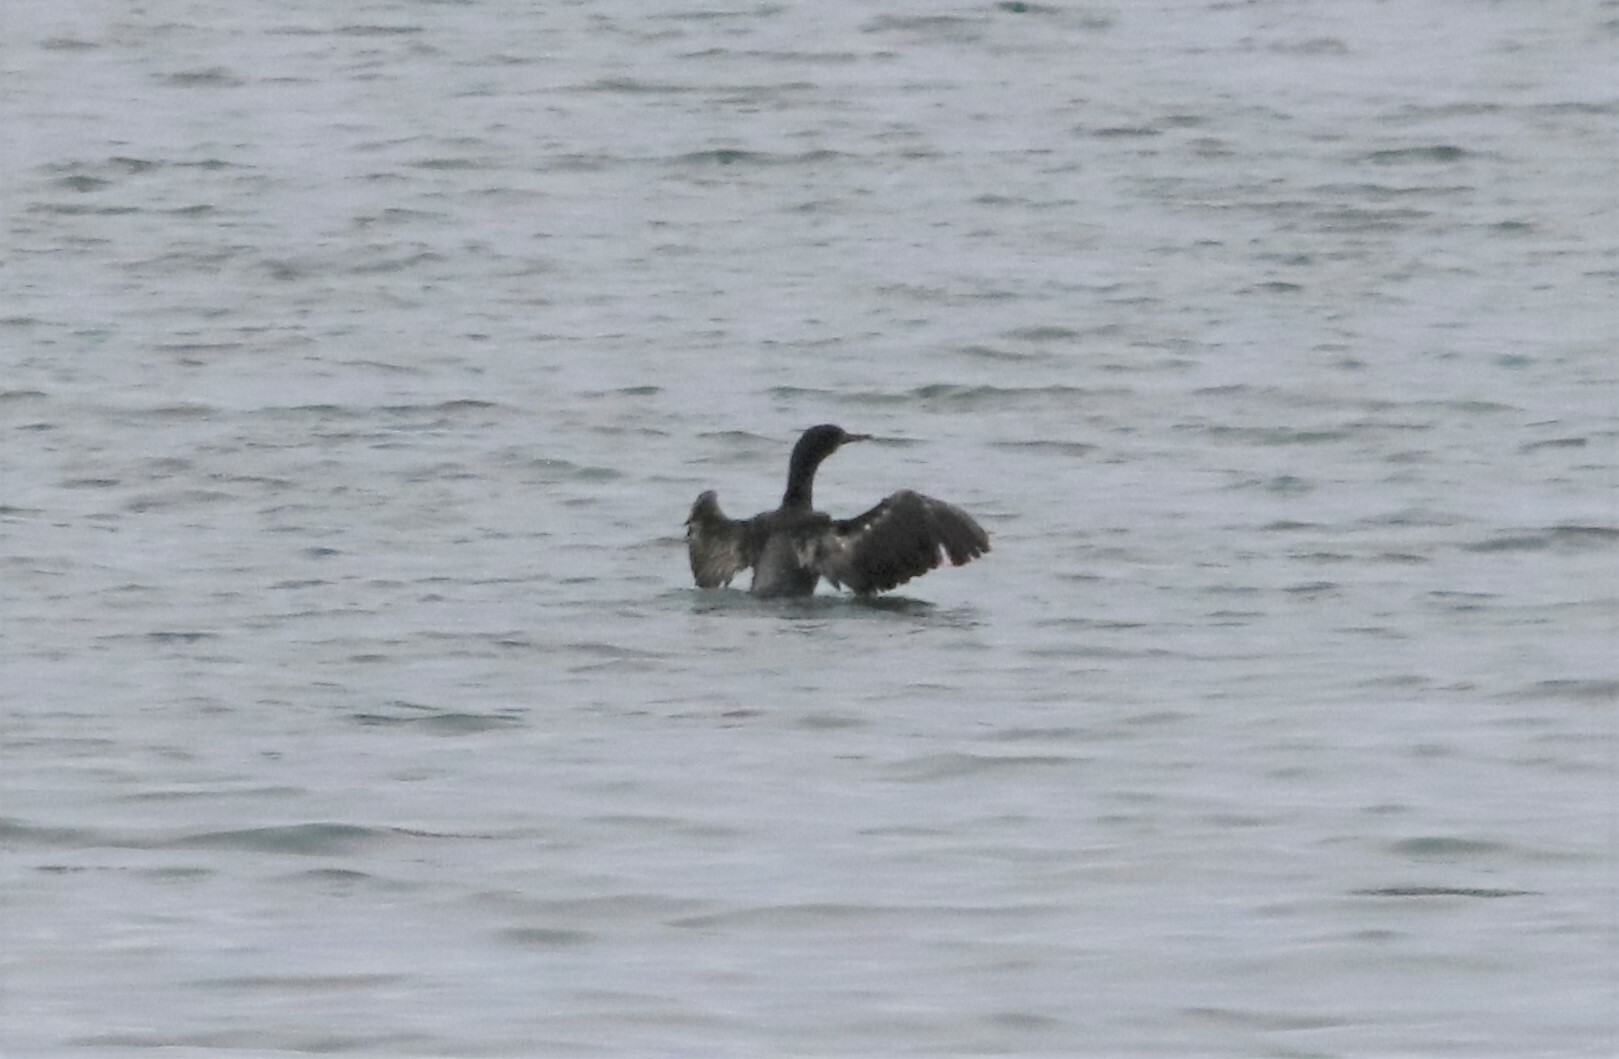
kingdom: Animalia
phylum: Chordata
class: Aves
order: Suliformes
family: Phalacrocoracidae
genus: Urile
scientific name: Urile penicillatus
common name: Brandt's cormorant
